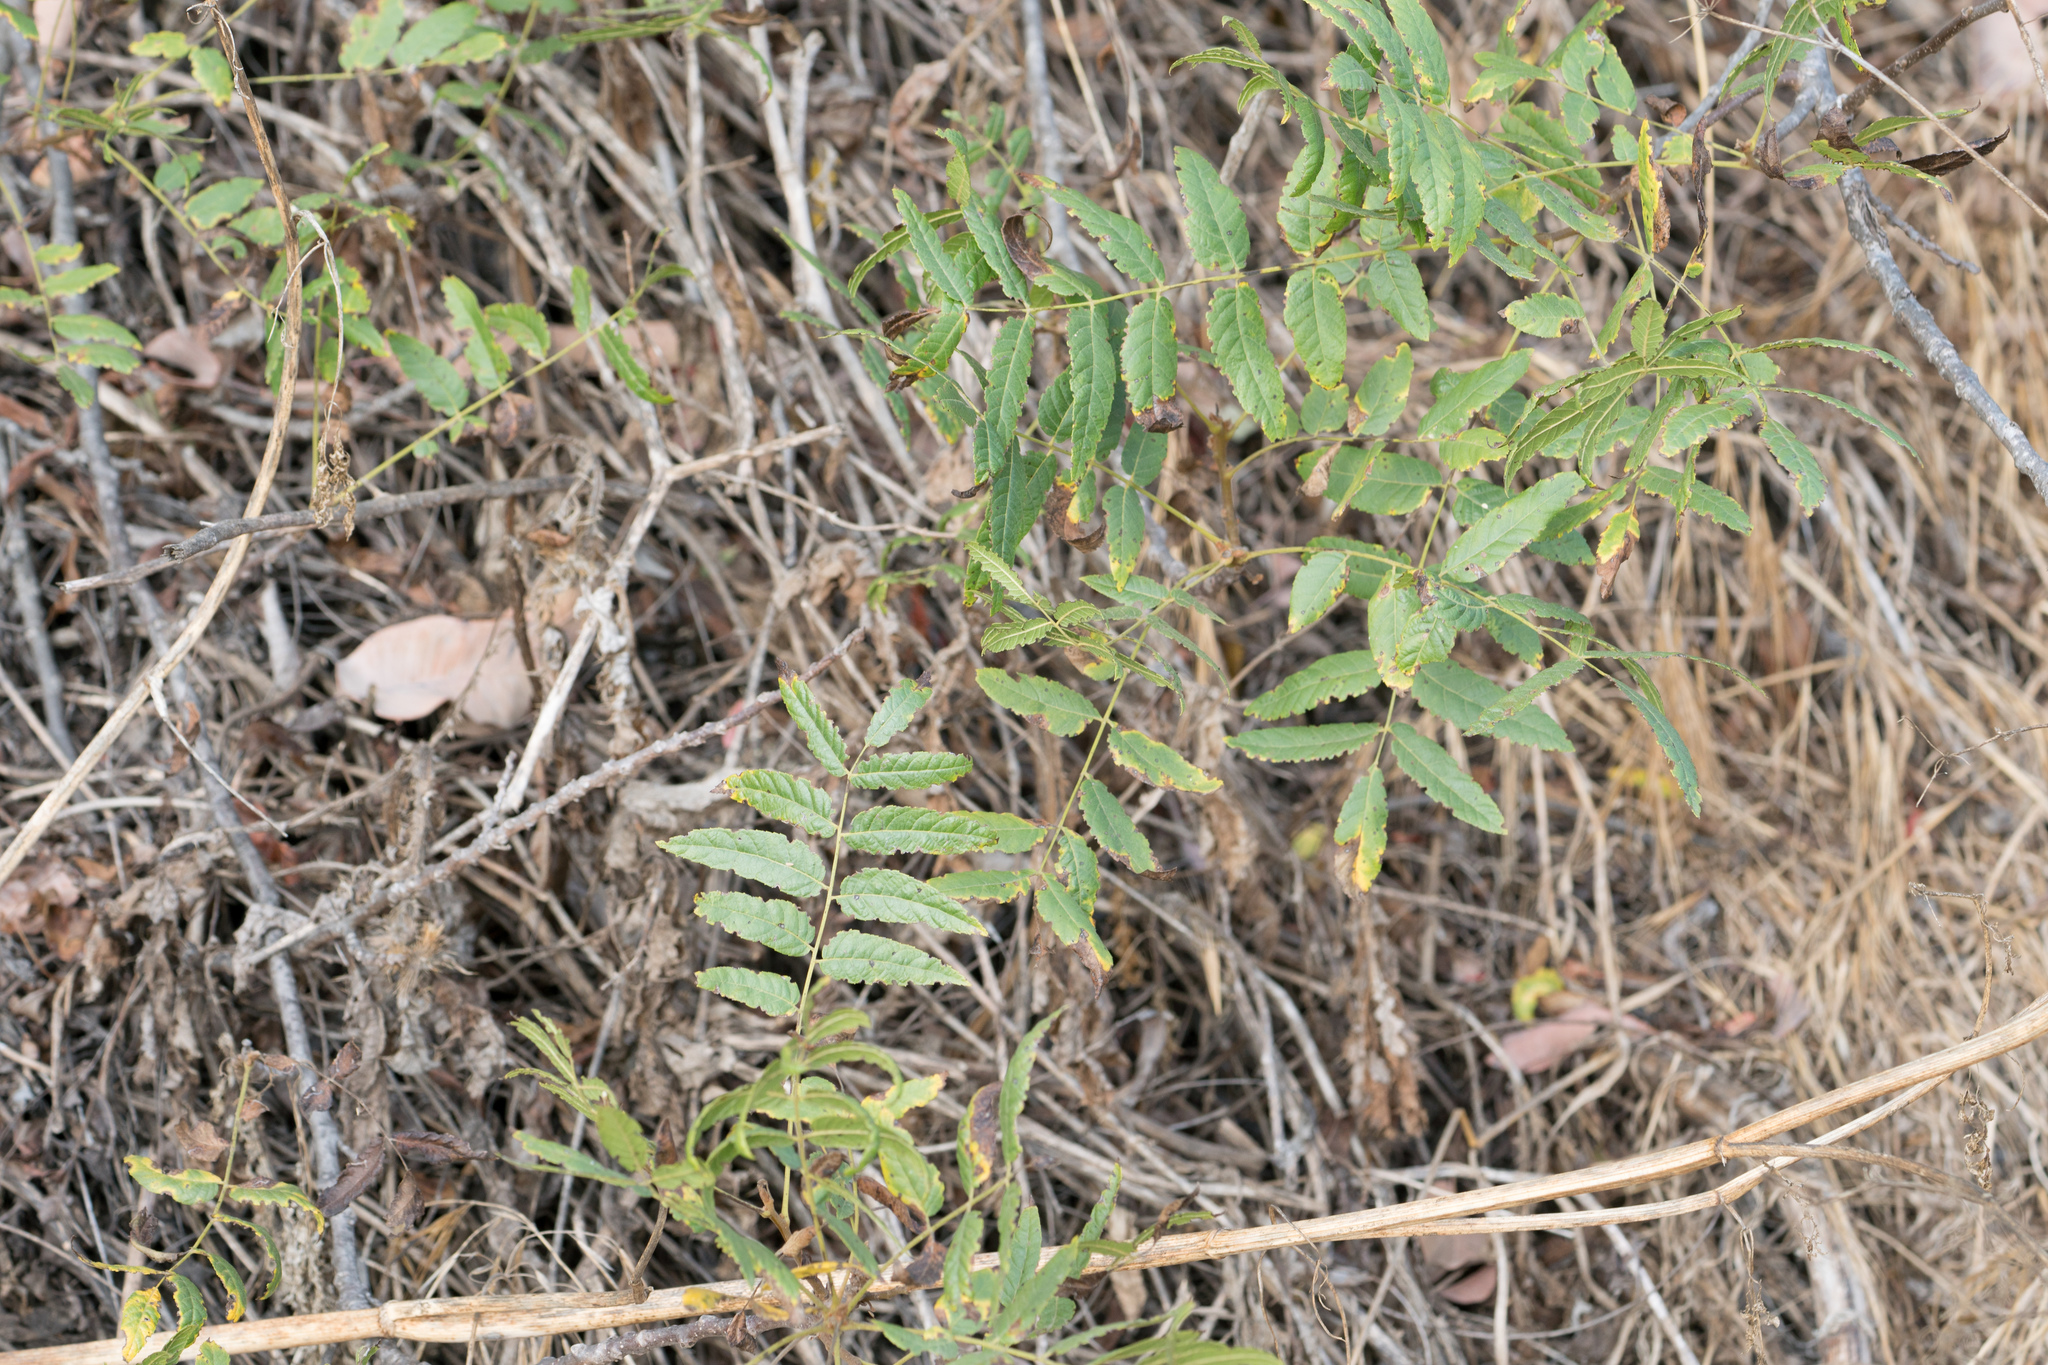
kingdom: Plantae
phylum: Tracheophyta
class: Magnoliopsida
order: Fagales
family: Juglandaceae
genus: Juglans
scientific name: Juglans californica
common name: Southern california black walnut
